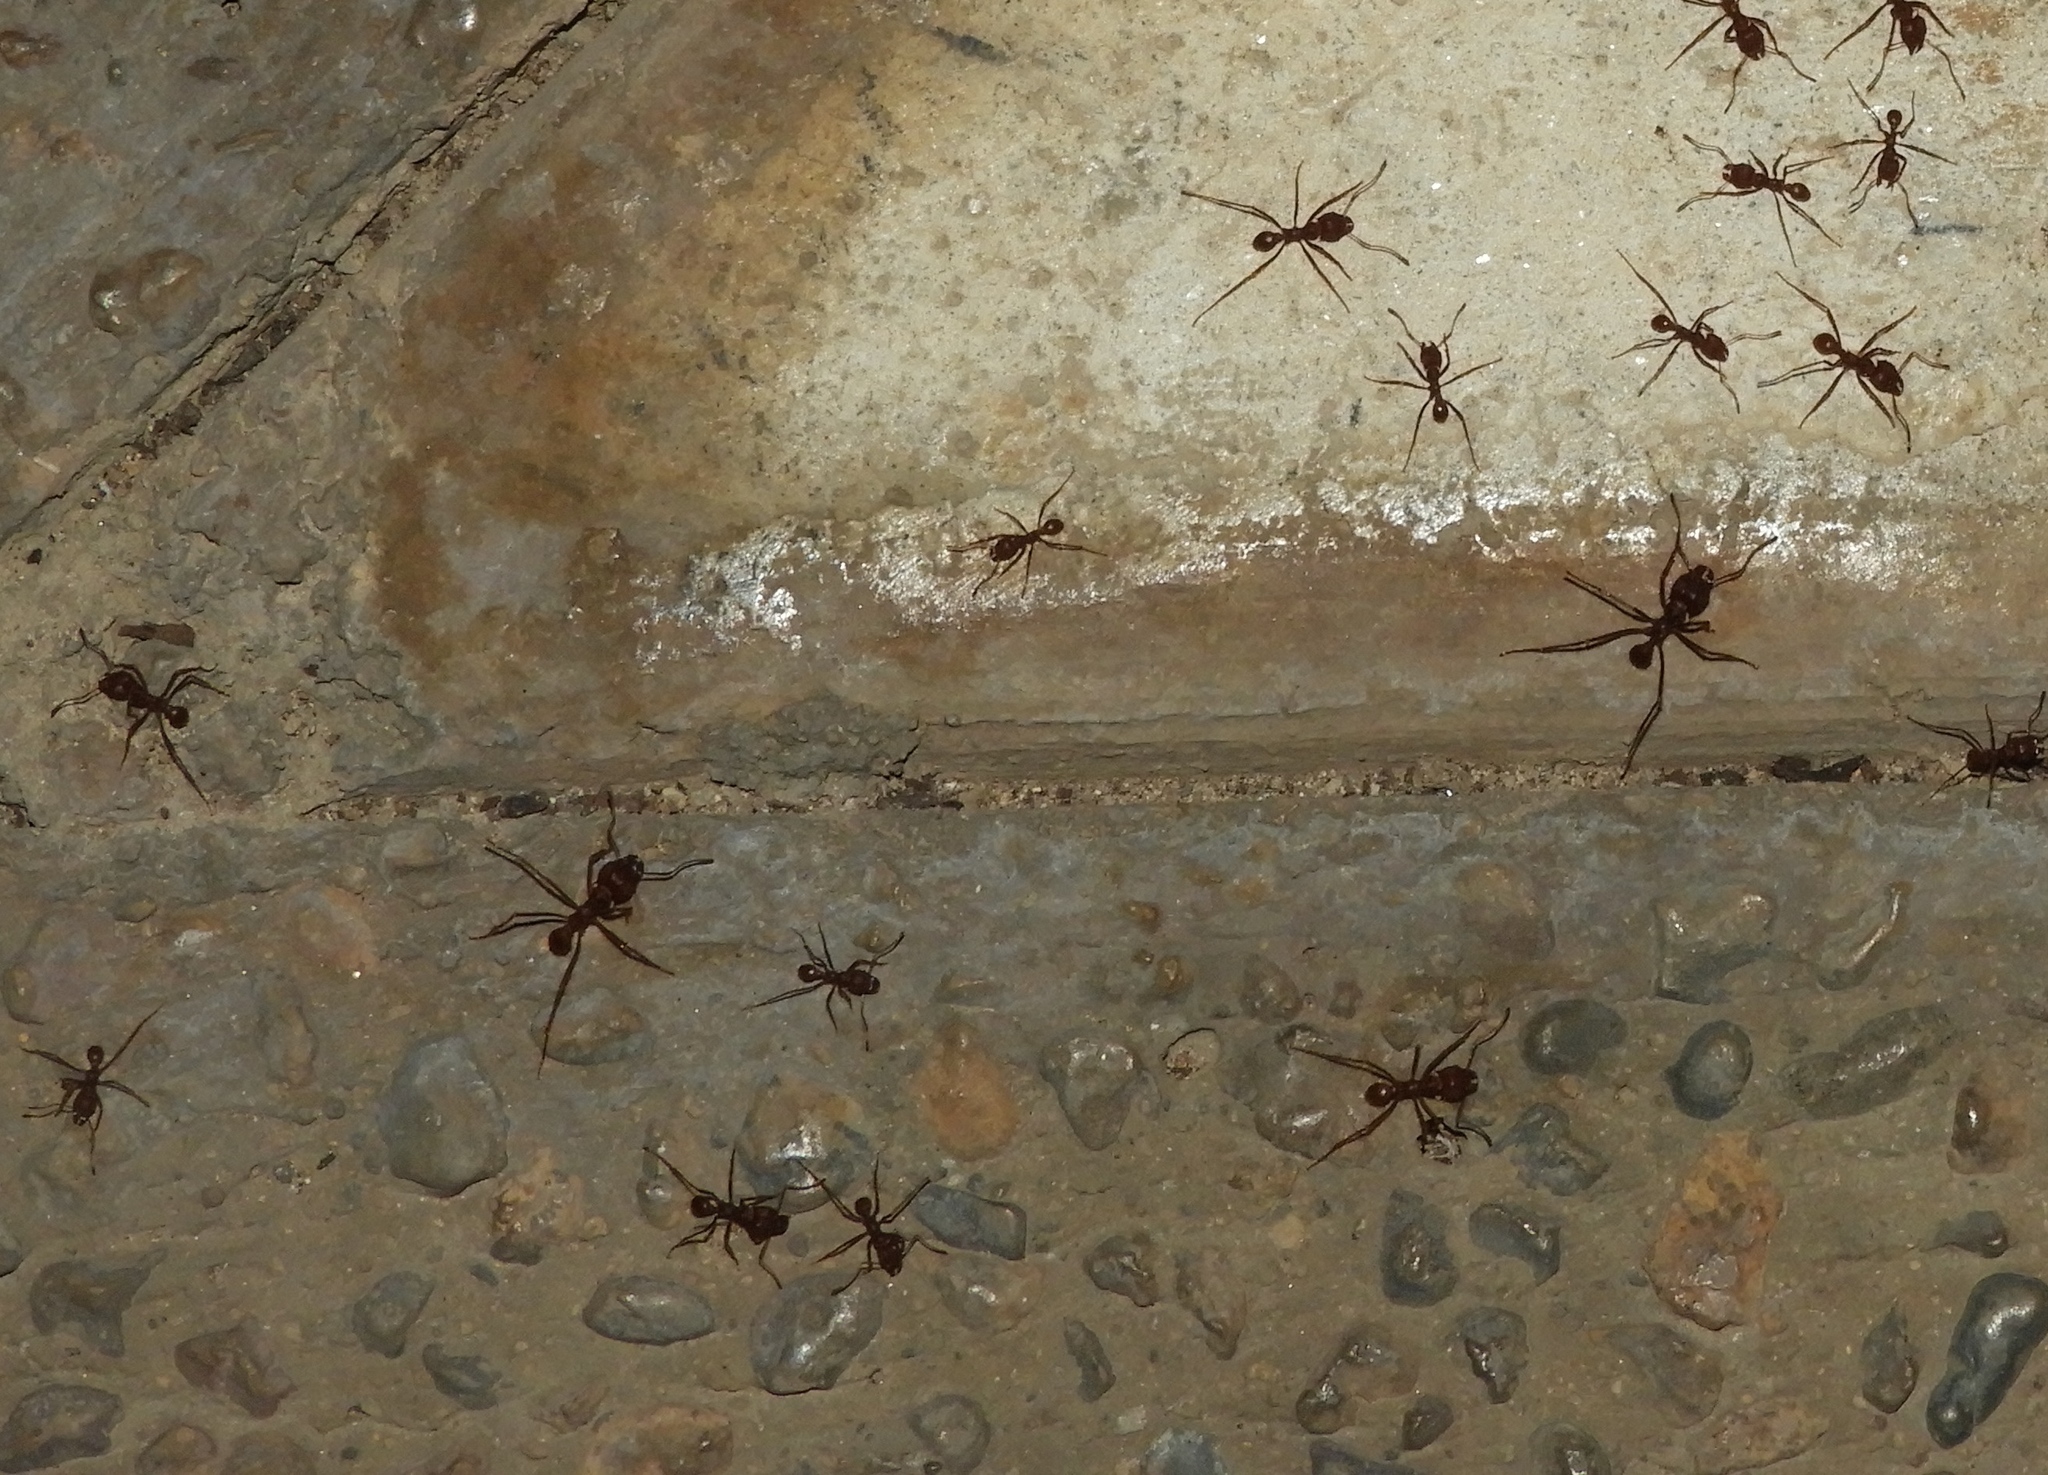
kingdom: Animalia
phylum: Arthropoda
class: Insecta
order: Hymenoptera
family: Formicidae
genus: Atta
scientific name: Atta mexicana
